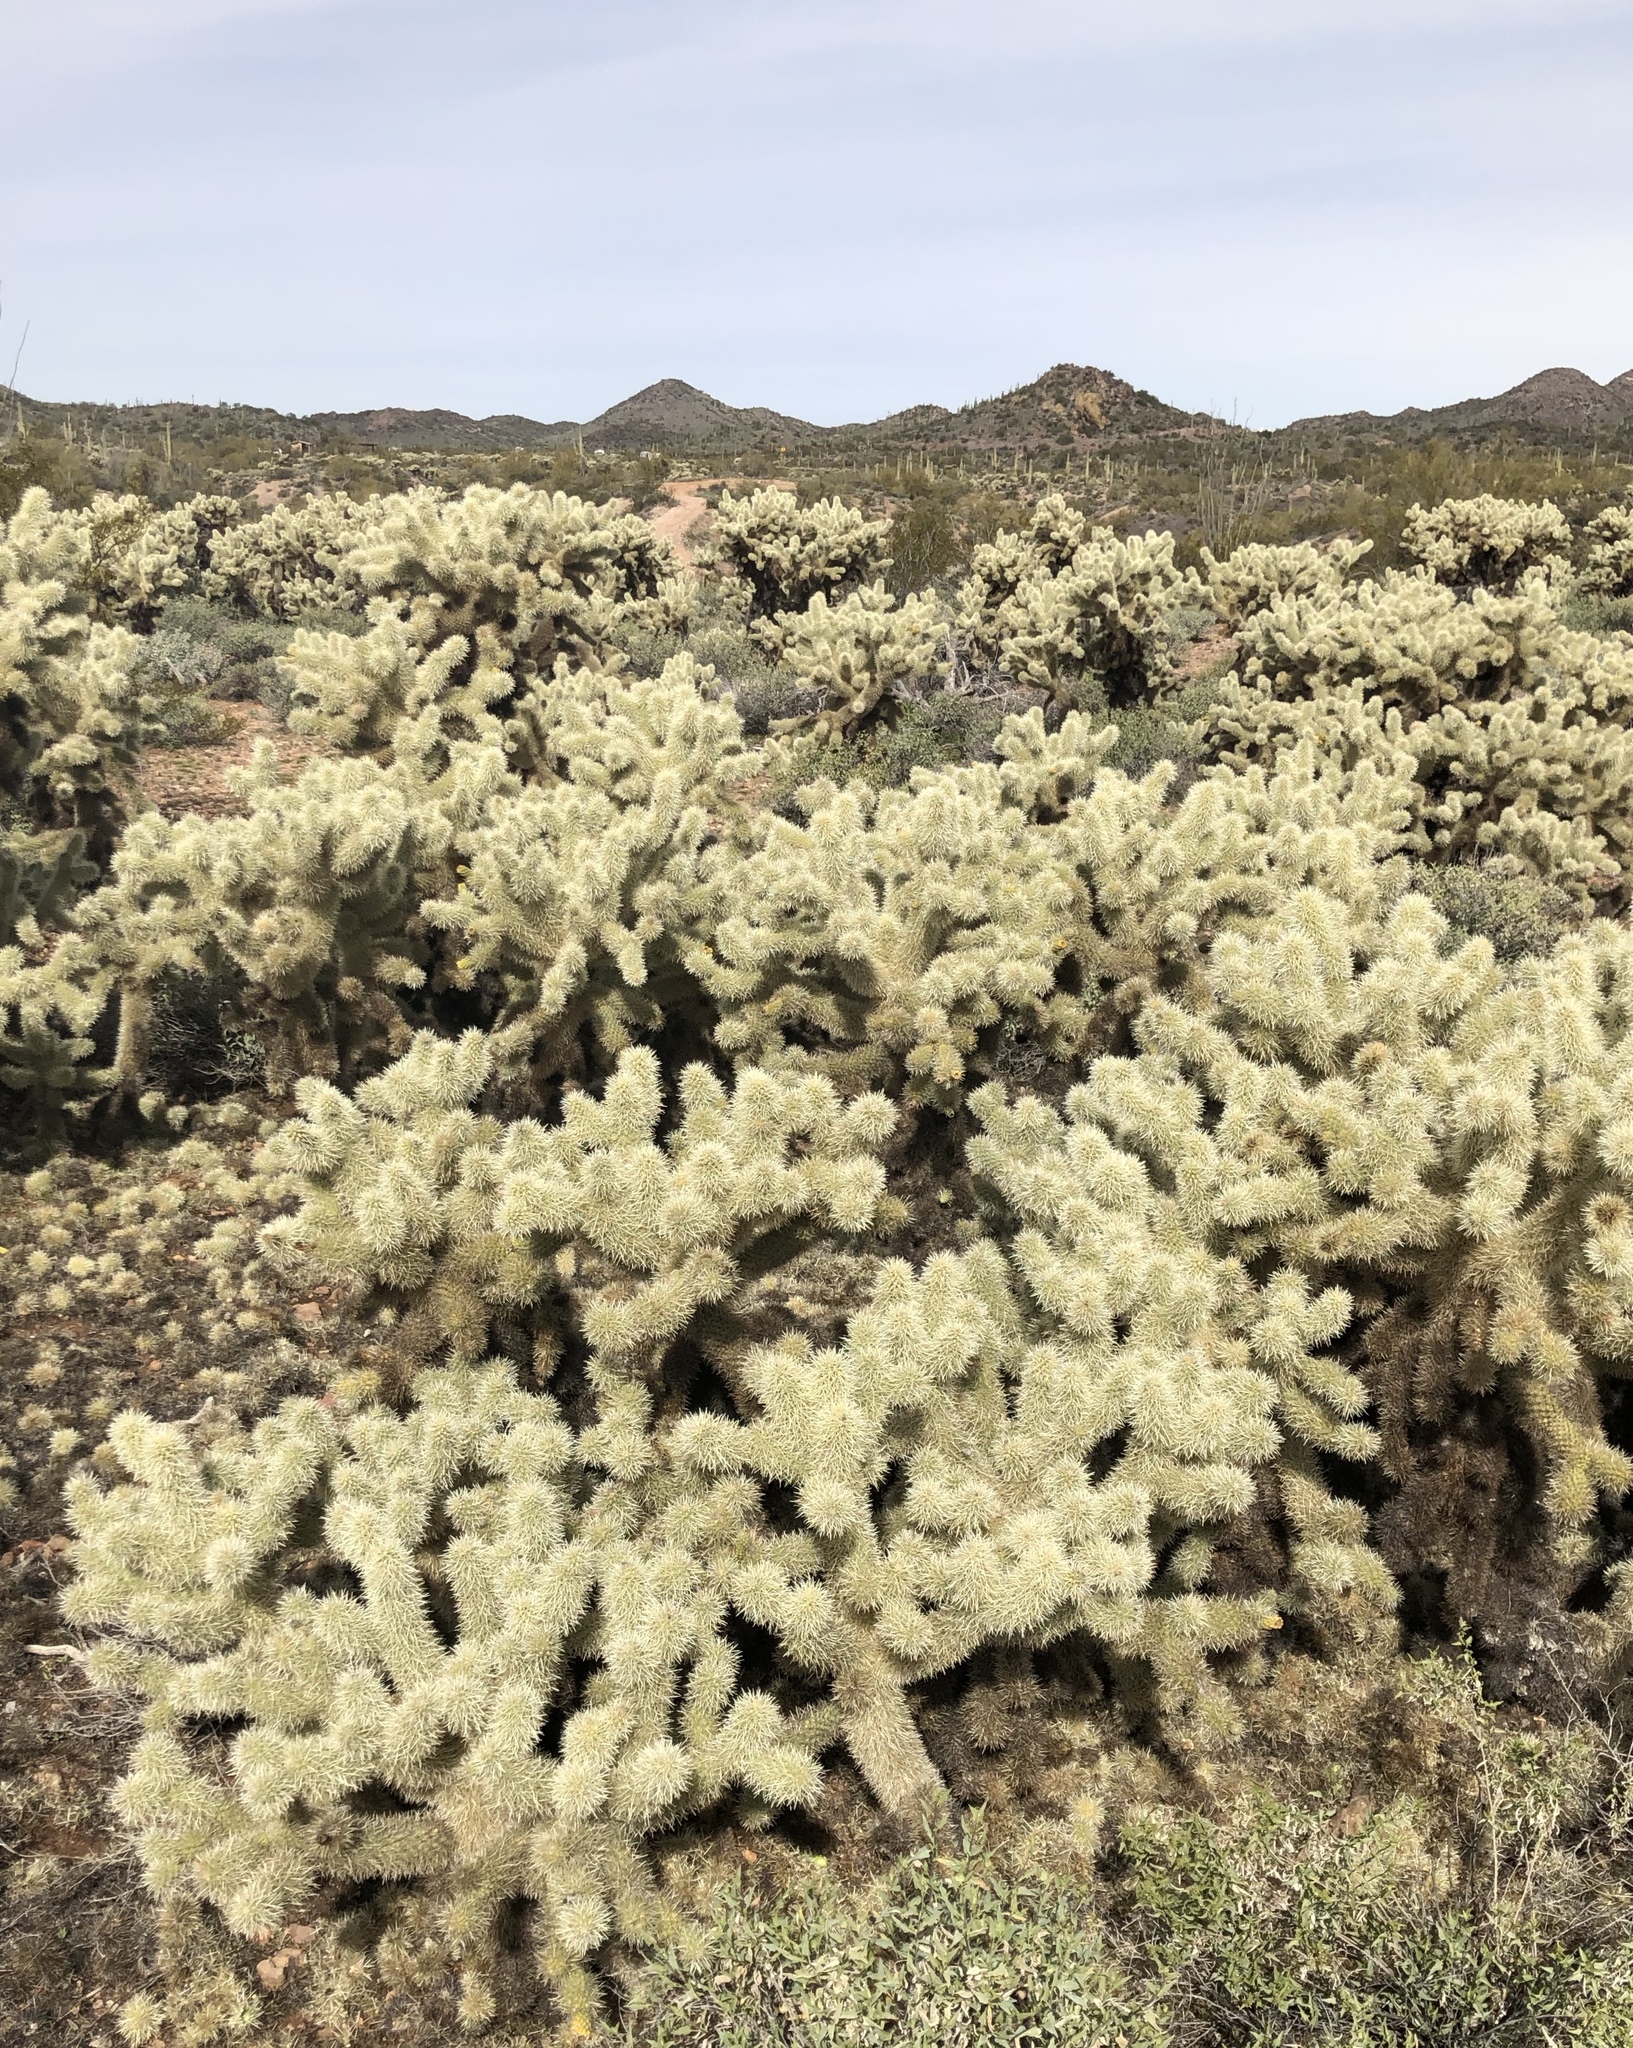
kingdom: Plantae
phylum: Tracheophyta
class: Magnoliopsida
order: Caryophyllales
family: Cactaceae
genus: Cylindropuntia
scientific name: Cylindropuntia fosbergii
